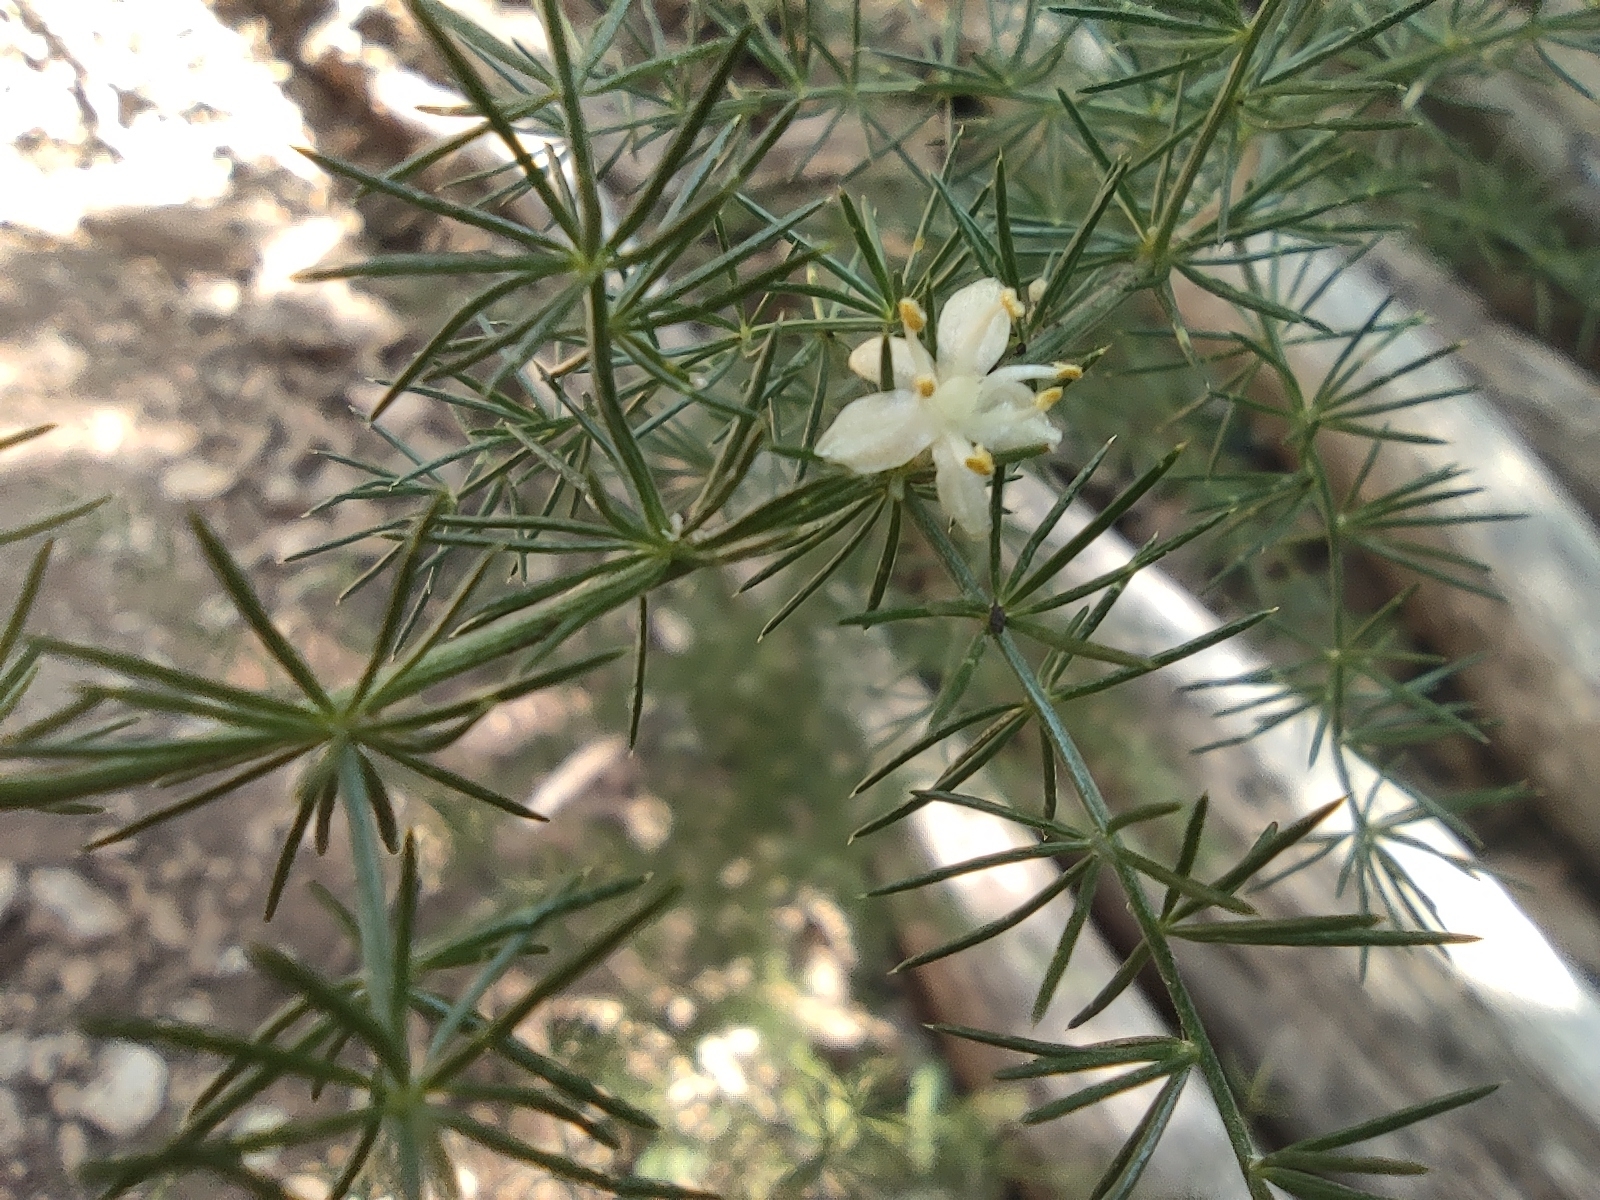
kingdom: Plantae
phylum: Tracheophyta
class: Liliopsida
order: Asparagales
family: Asparagaceae
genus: Asparagus
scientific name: Asparagus acutifolius
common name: Wild asparagus
